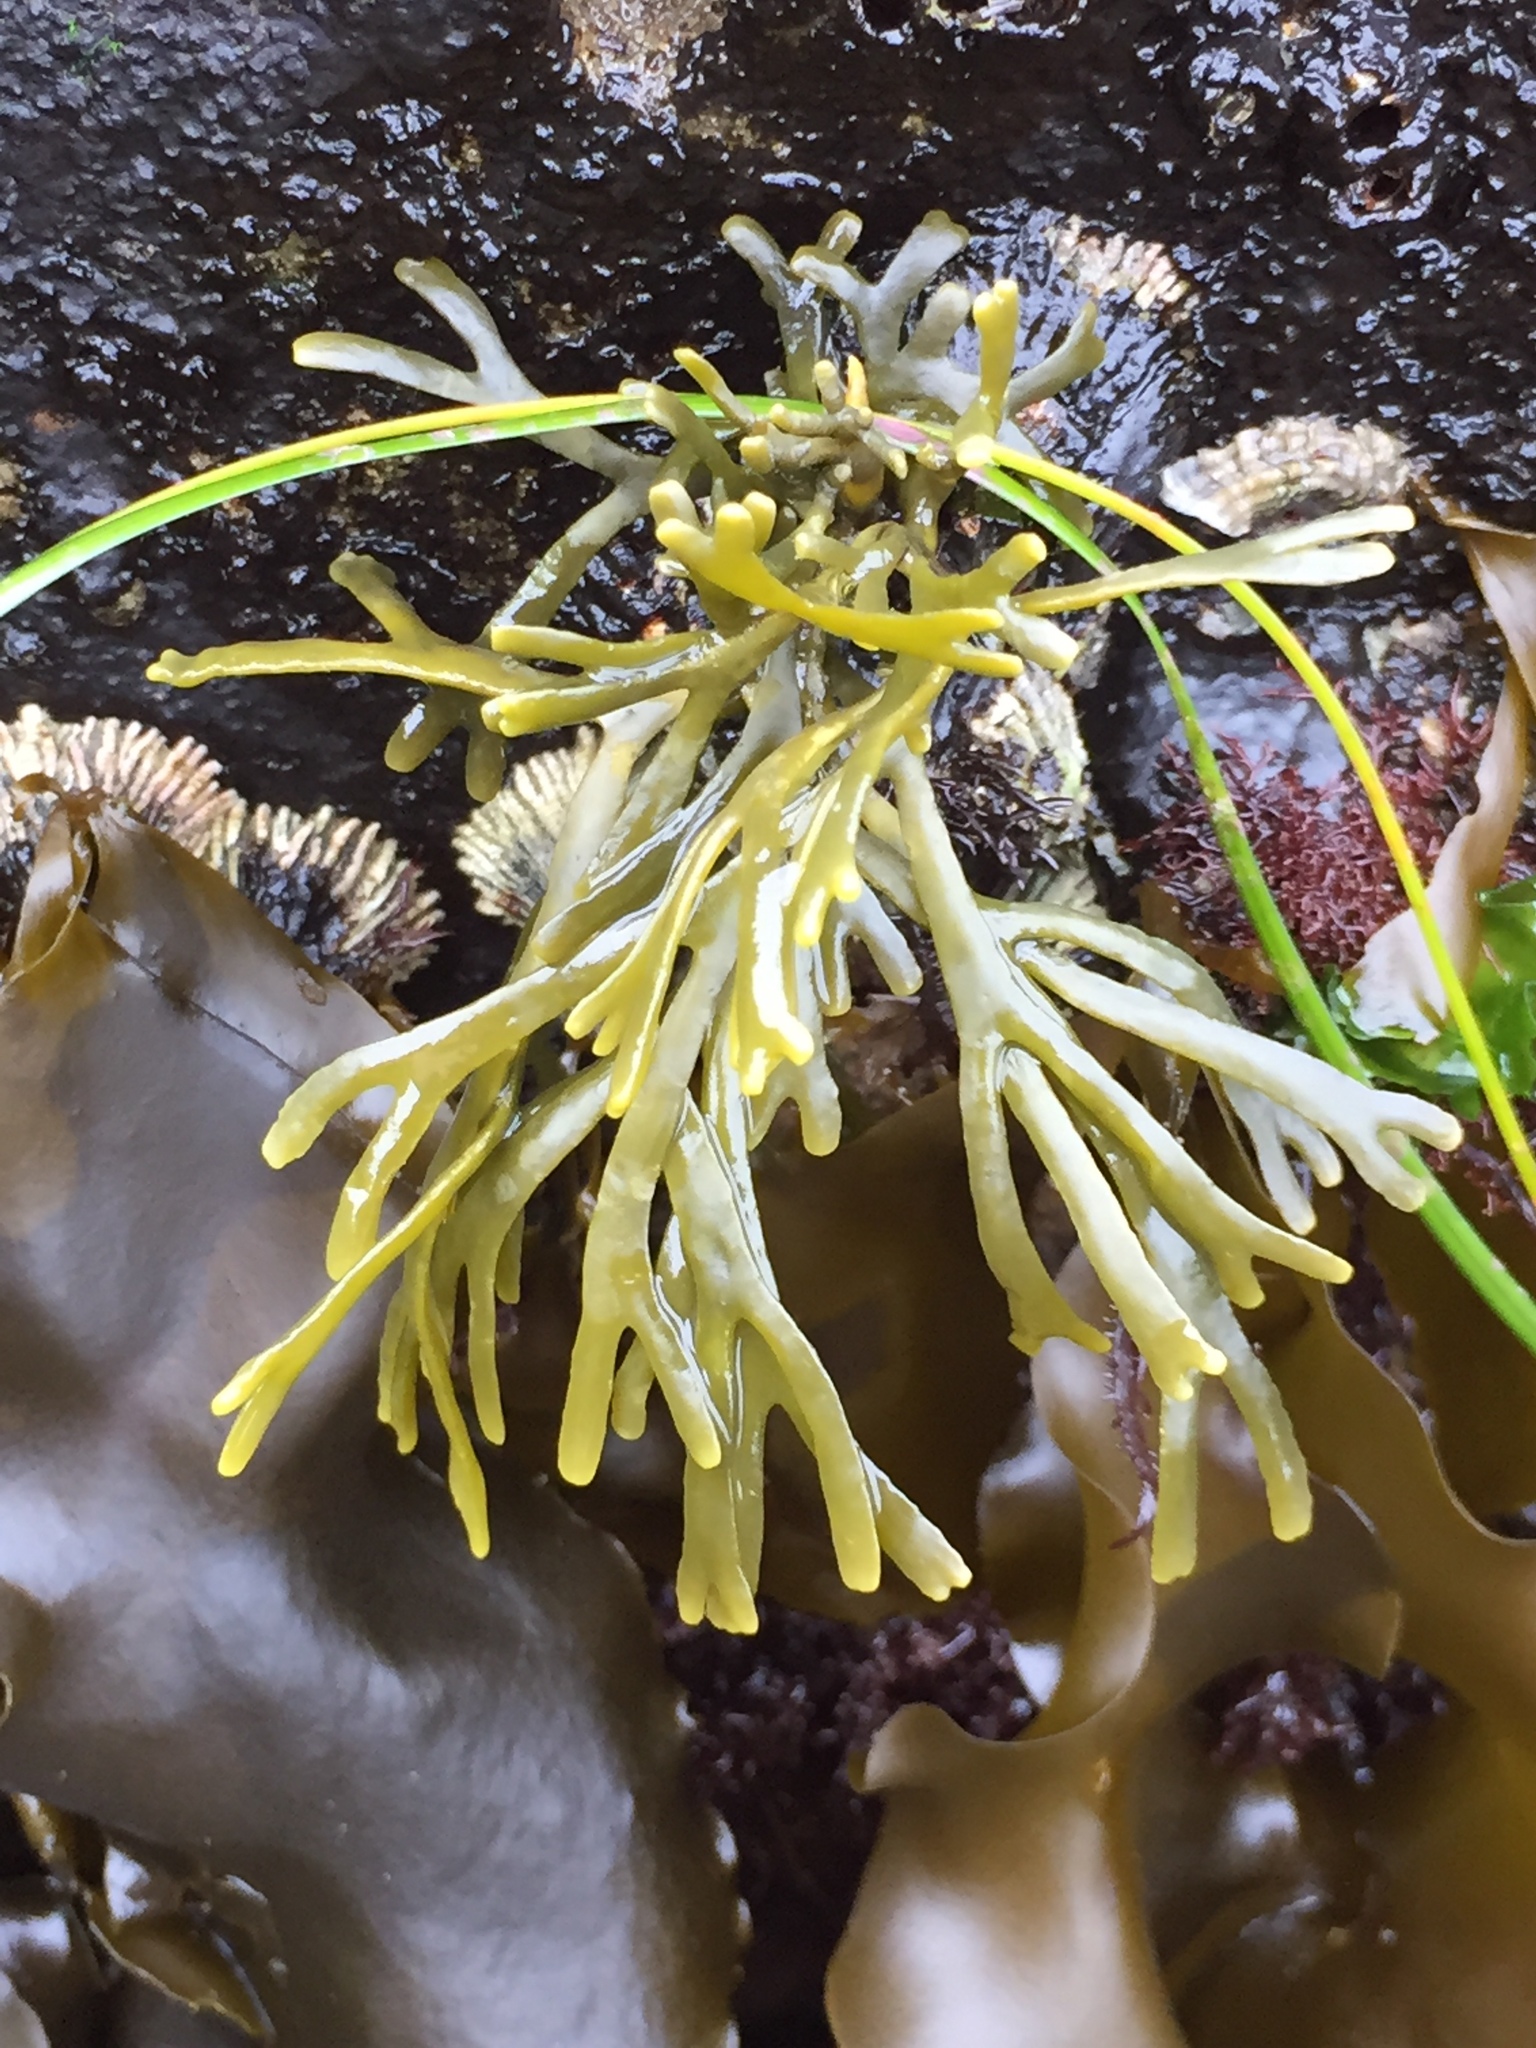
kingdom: Chromista
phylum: Ochrophyta
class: Phaeophyceae
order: Fucales
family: Fucaceae
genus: Silvetia
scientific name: Silvetia
